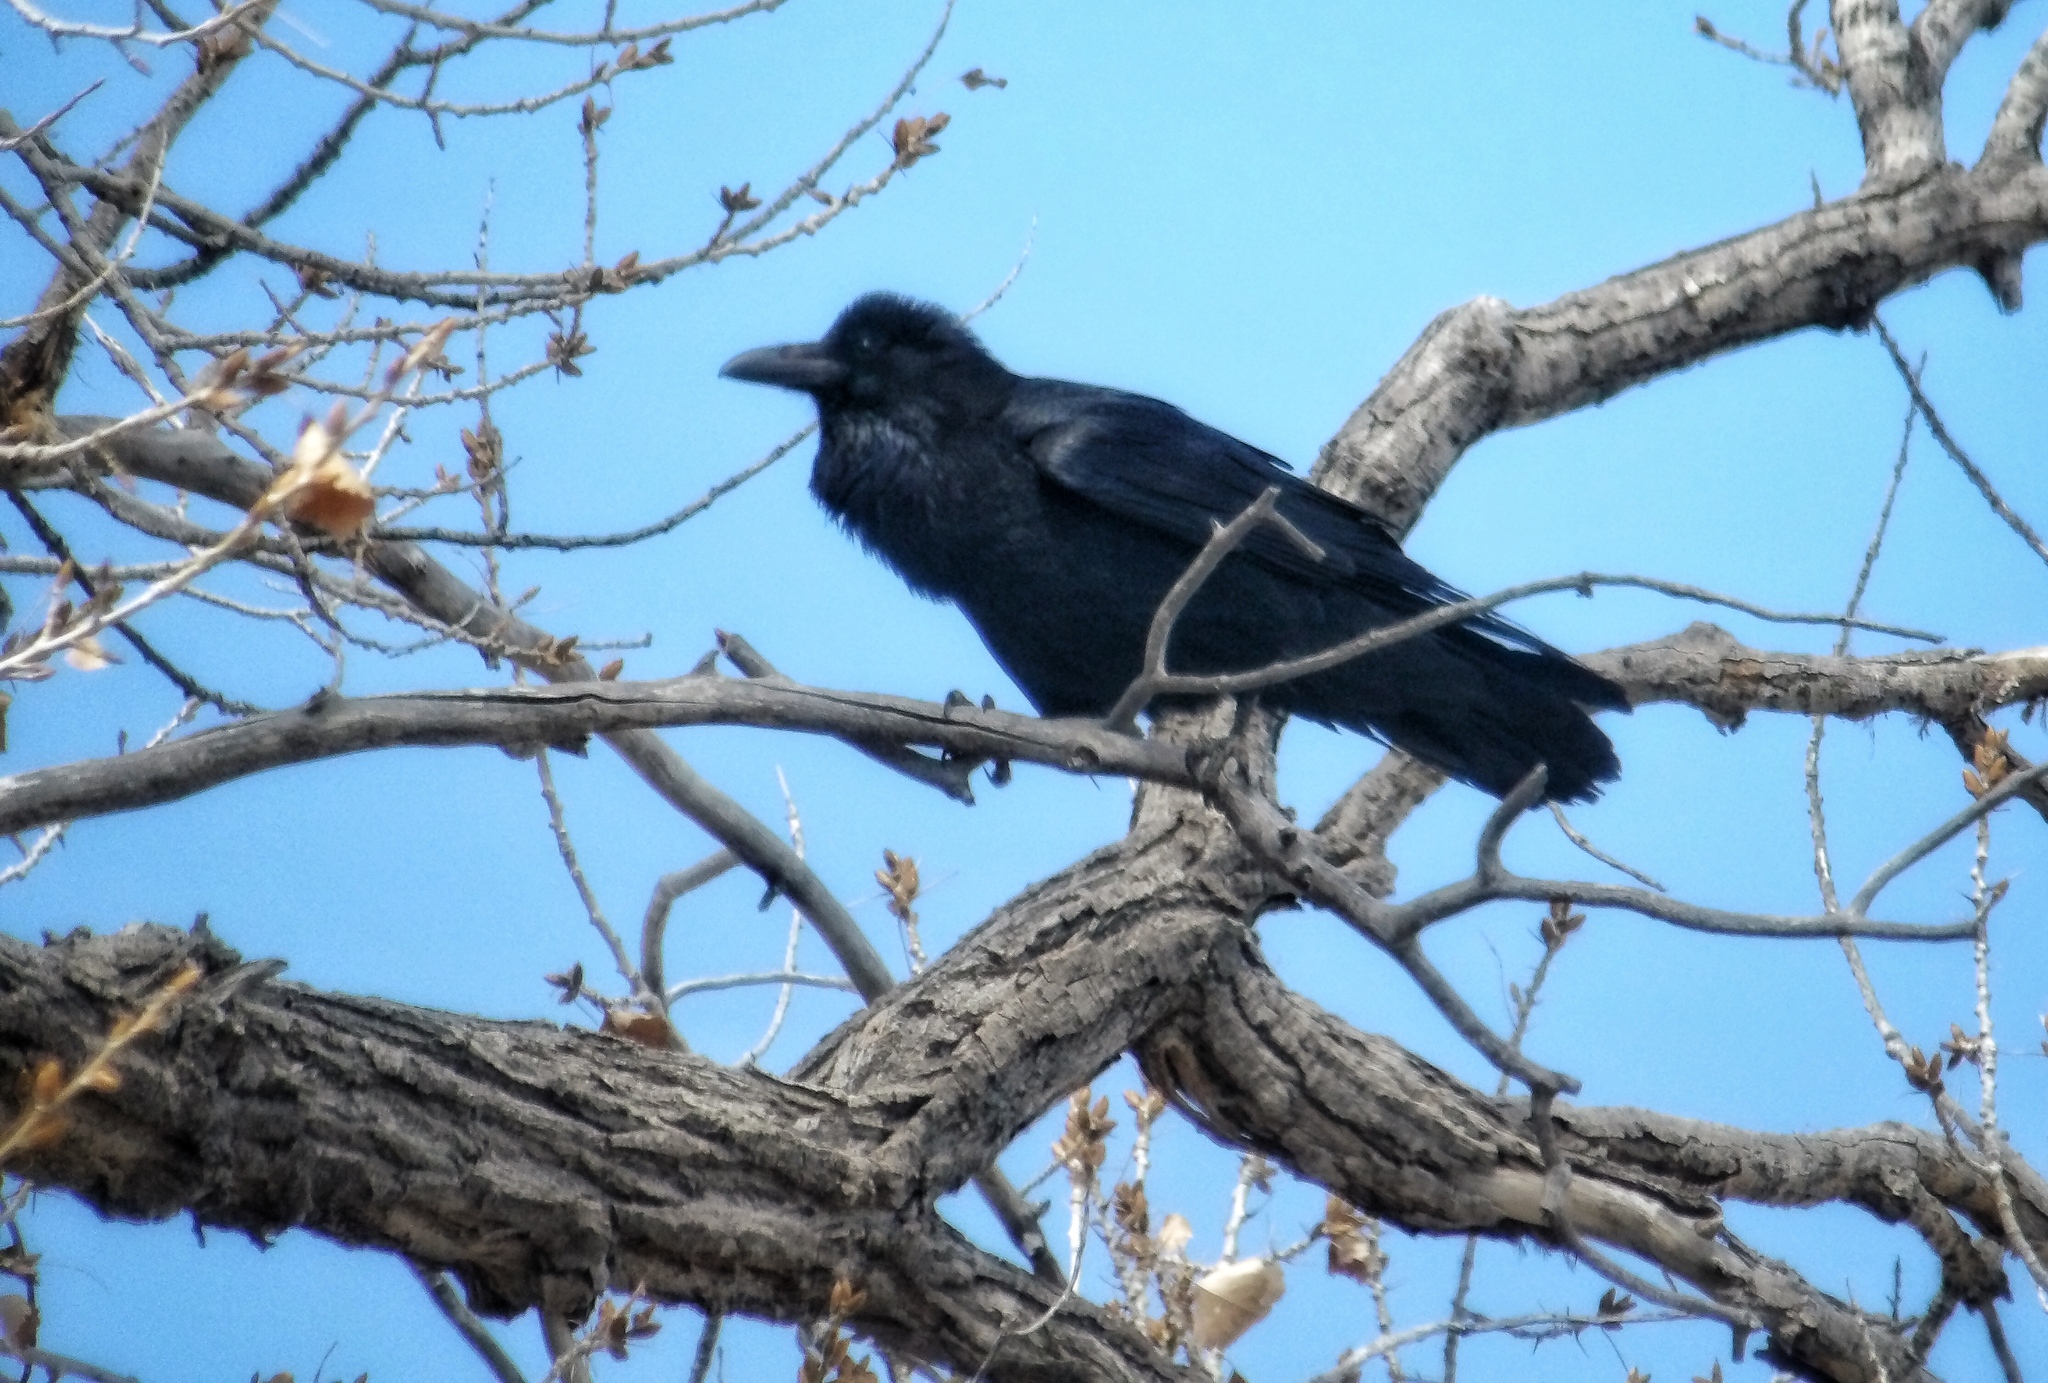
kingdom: Animalia
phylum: Chordata
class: Aves
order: Passeriformes
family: Corvidae
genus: Corvus
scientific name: Corvus corax
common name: Common raven
